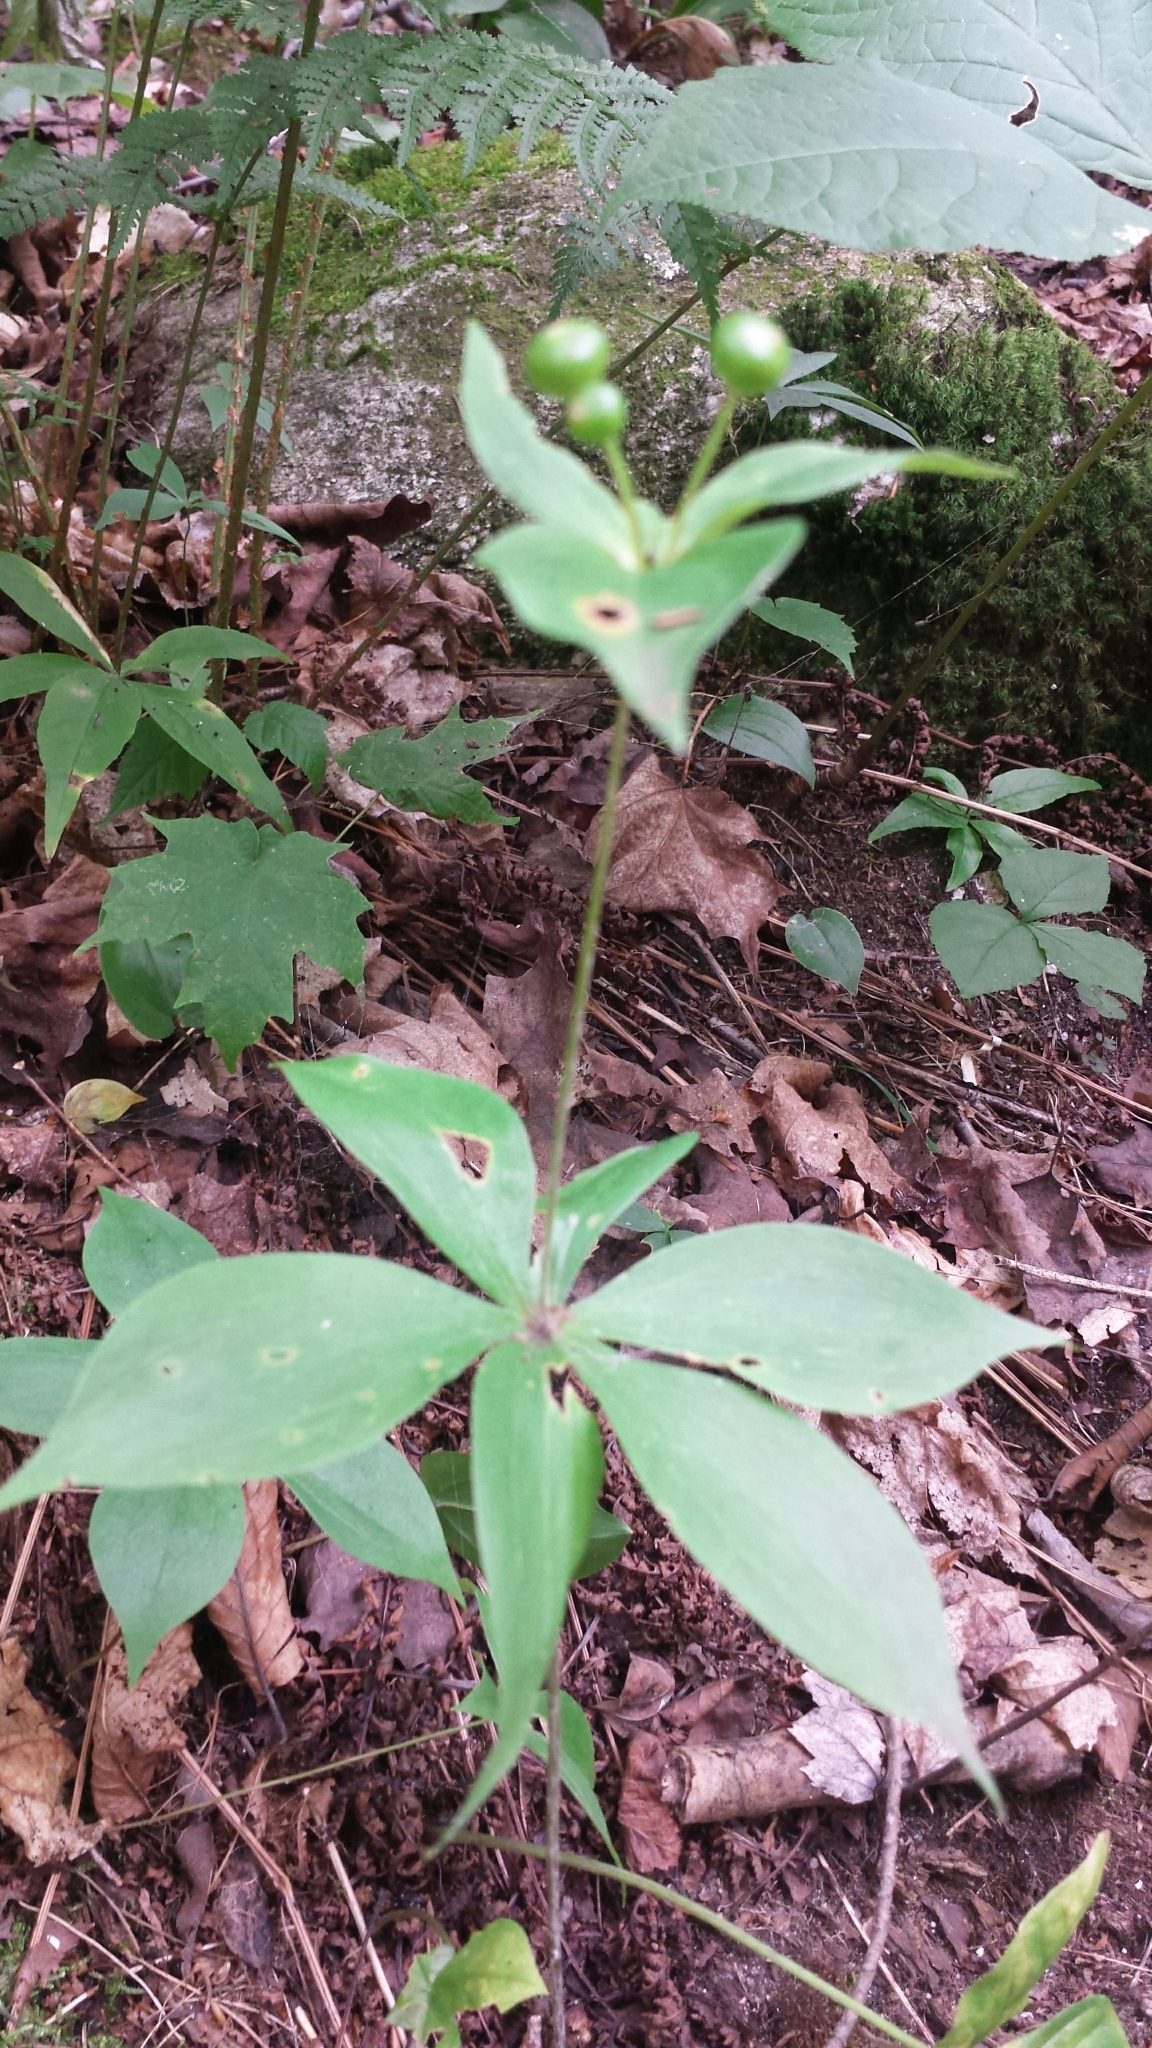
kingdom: Plantae
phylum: Tracheophyta
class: Liliopsida
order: Liliales
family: Liliaceae
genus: Medeola
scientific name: Medeola virginiana
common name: Indian cucumber-root
